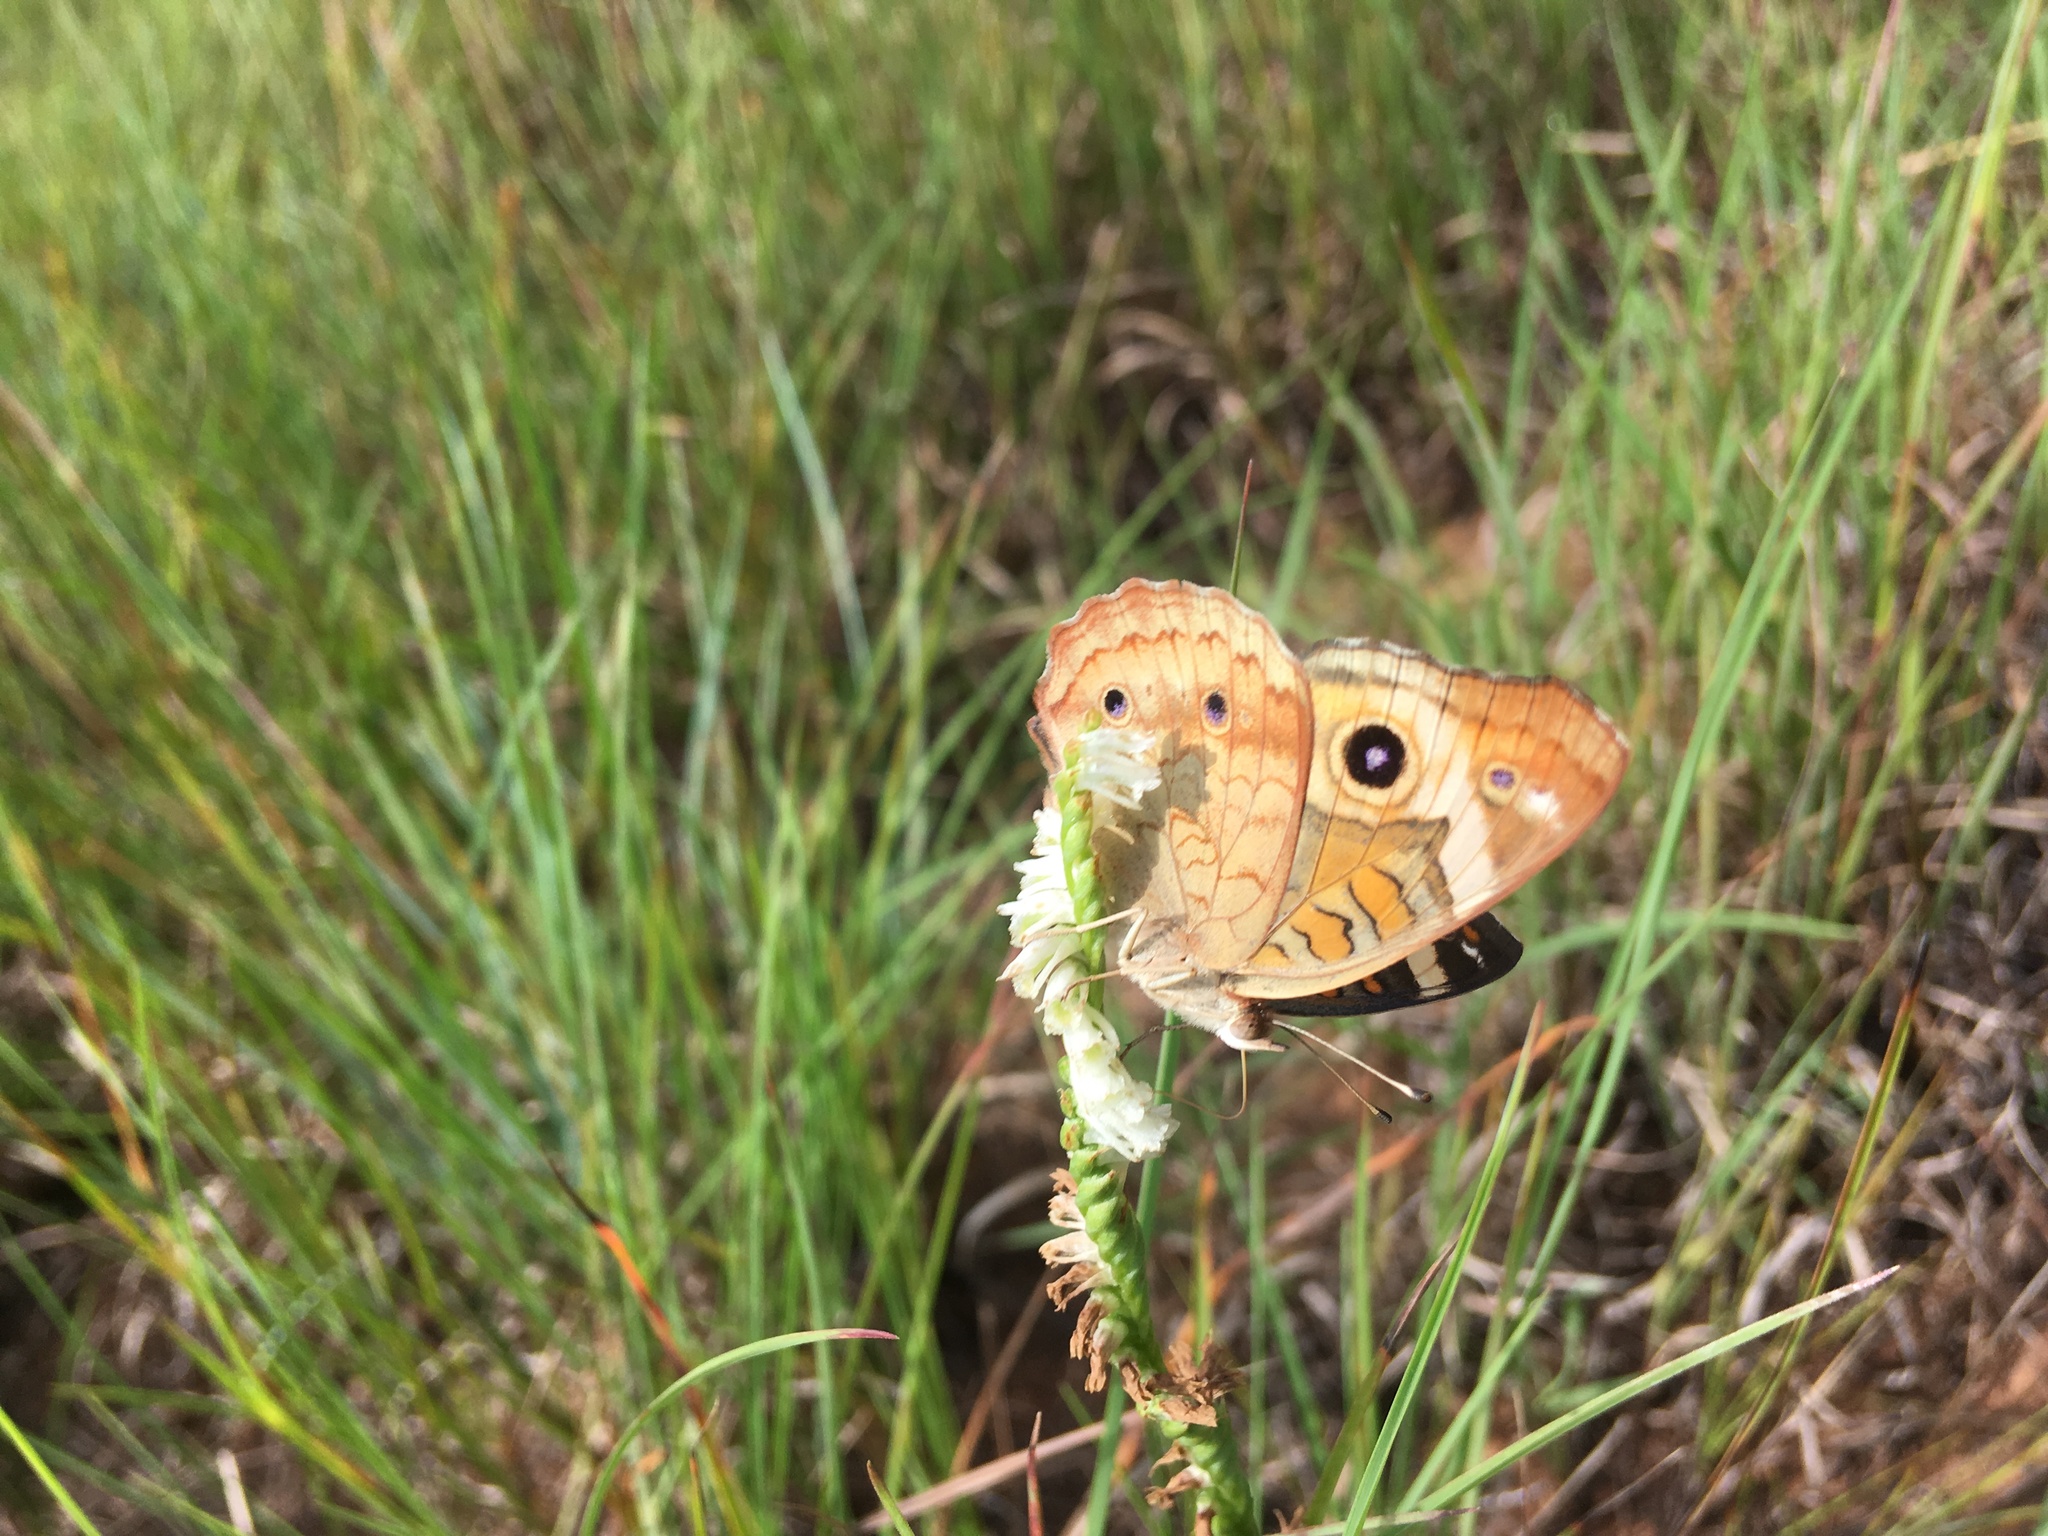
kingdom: Animalia
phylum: Arthropoda
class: Insecta
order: Lepidoptera
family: Nymphalidae
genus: Junonia
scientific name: Junonia coenia
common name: Common buckeye
